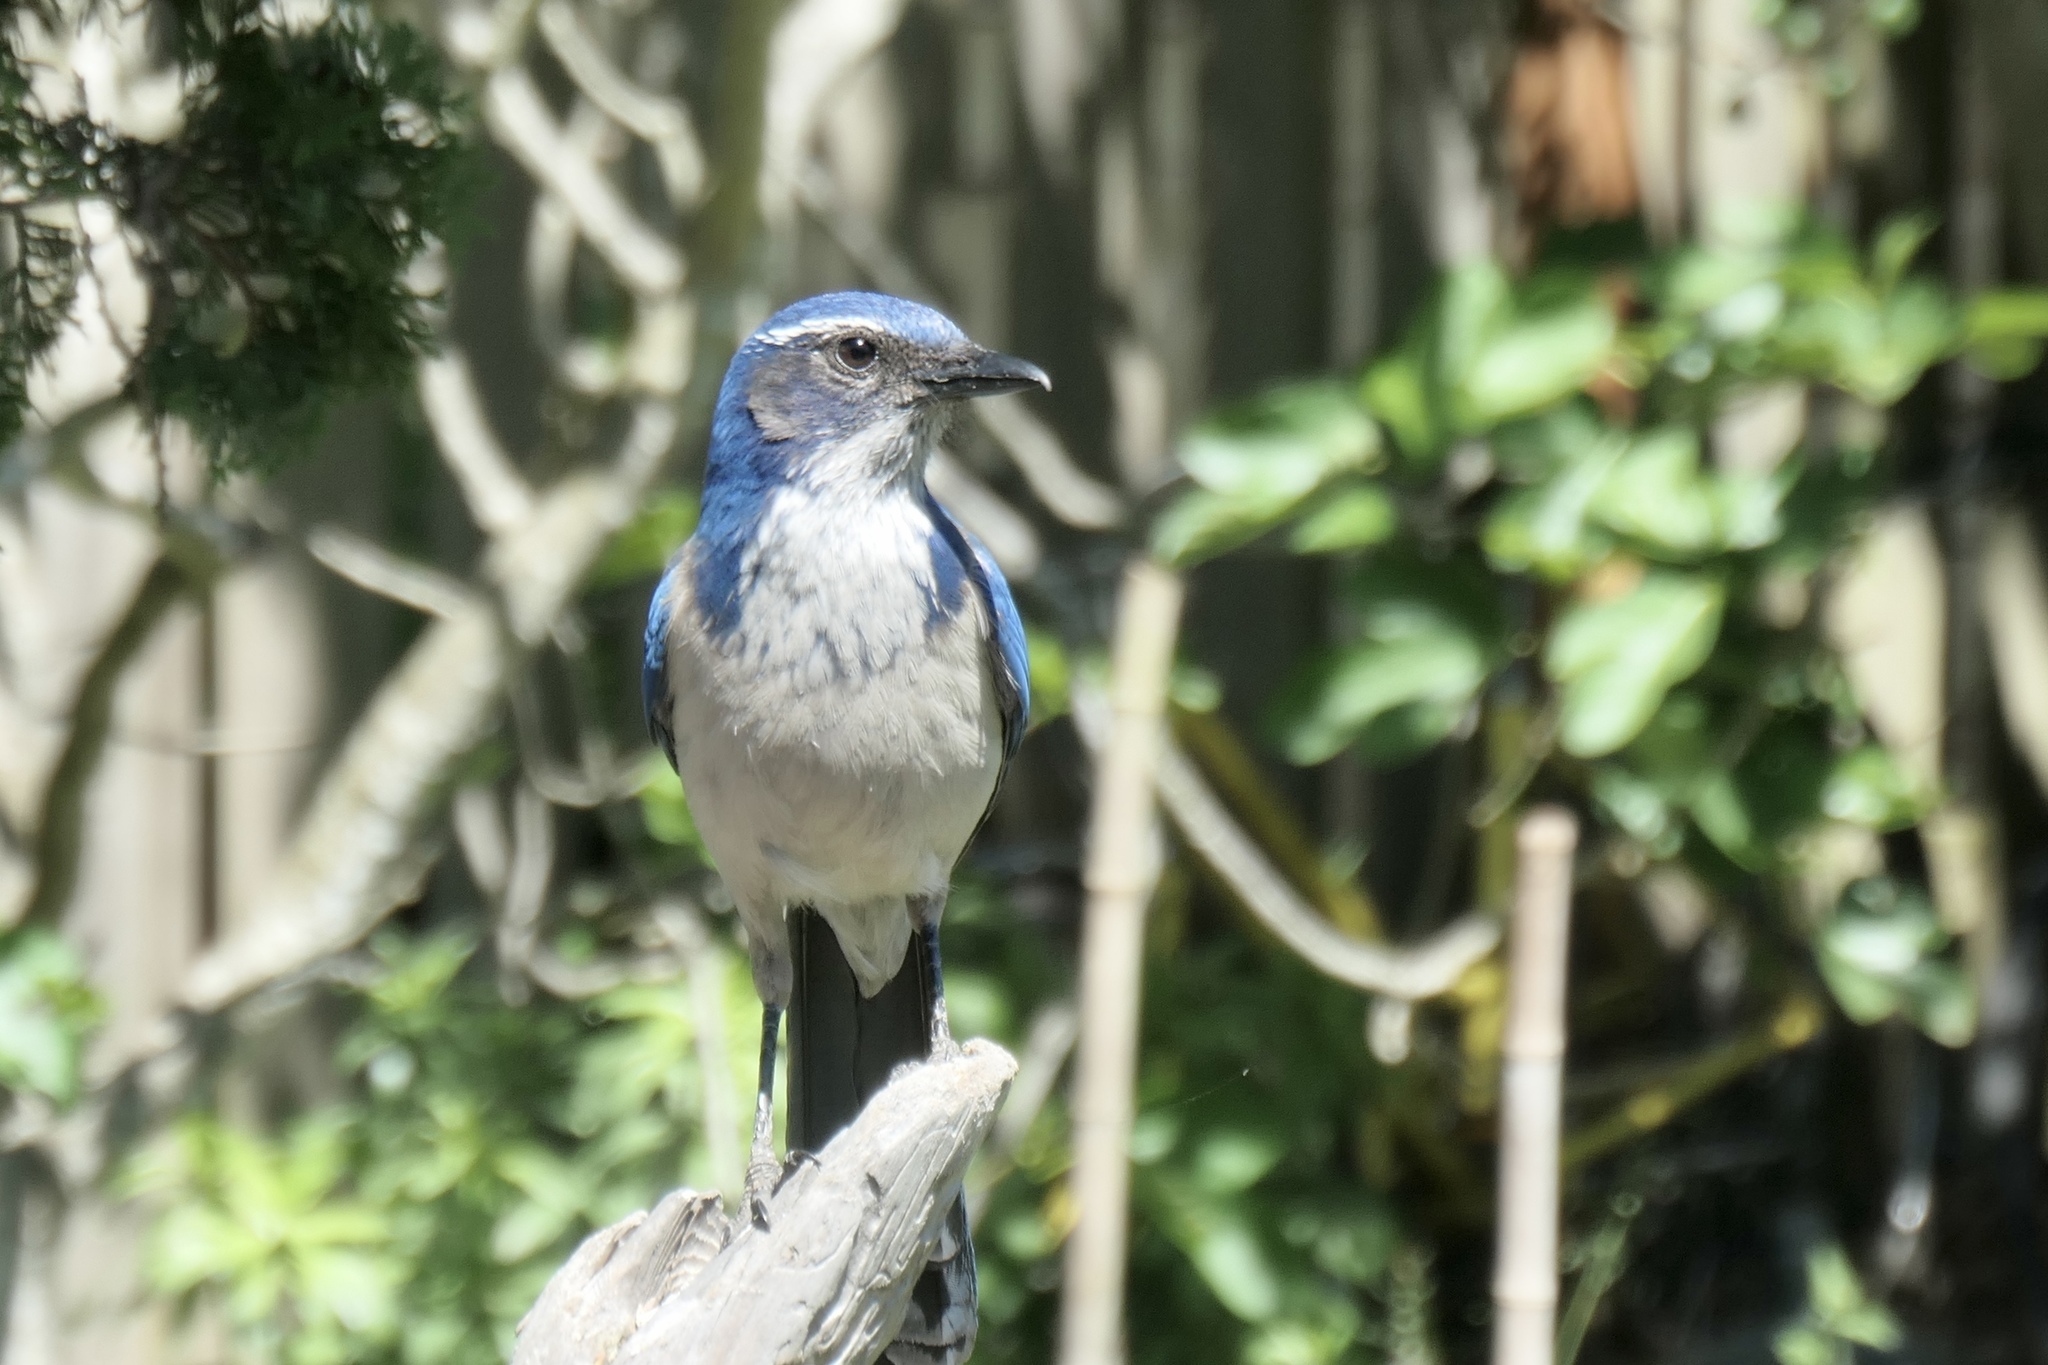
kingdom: Animalia
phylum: Chordata
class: Aves
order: Passeriformes
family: Corvidae
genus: Aphelocoma
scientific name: Aphelocoma californica
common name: California scrub-jay
